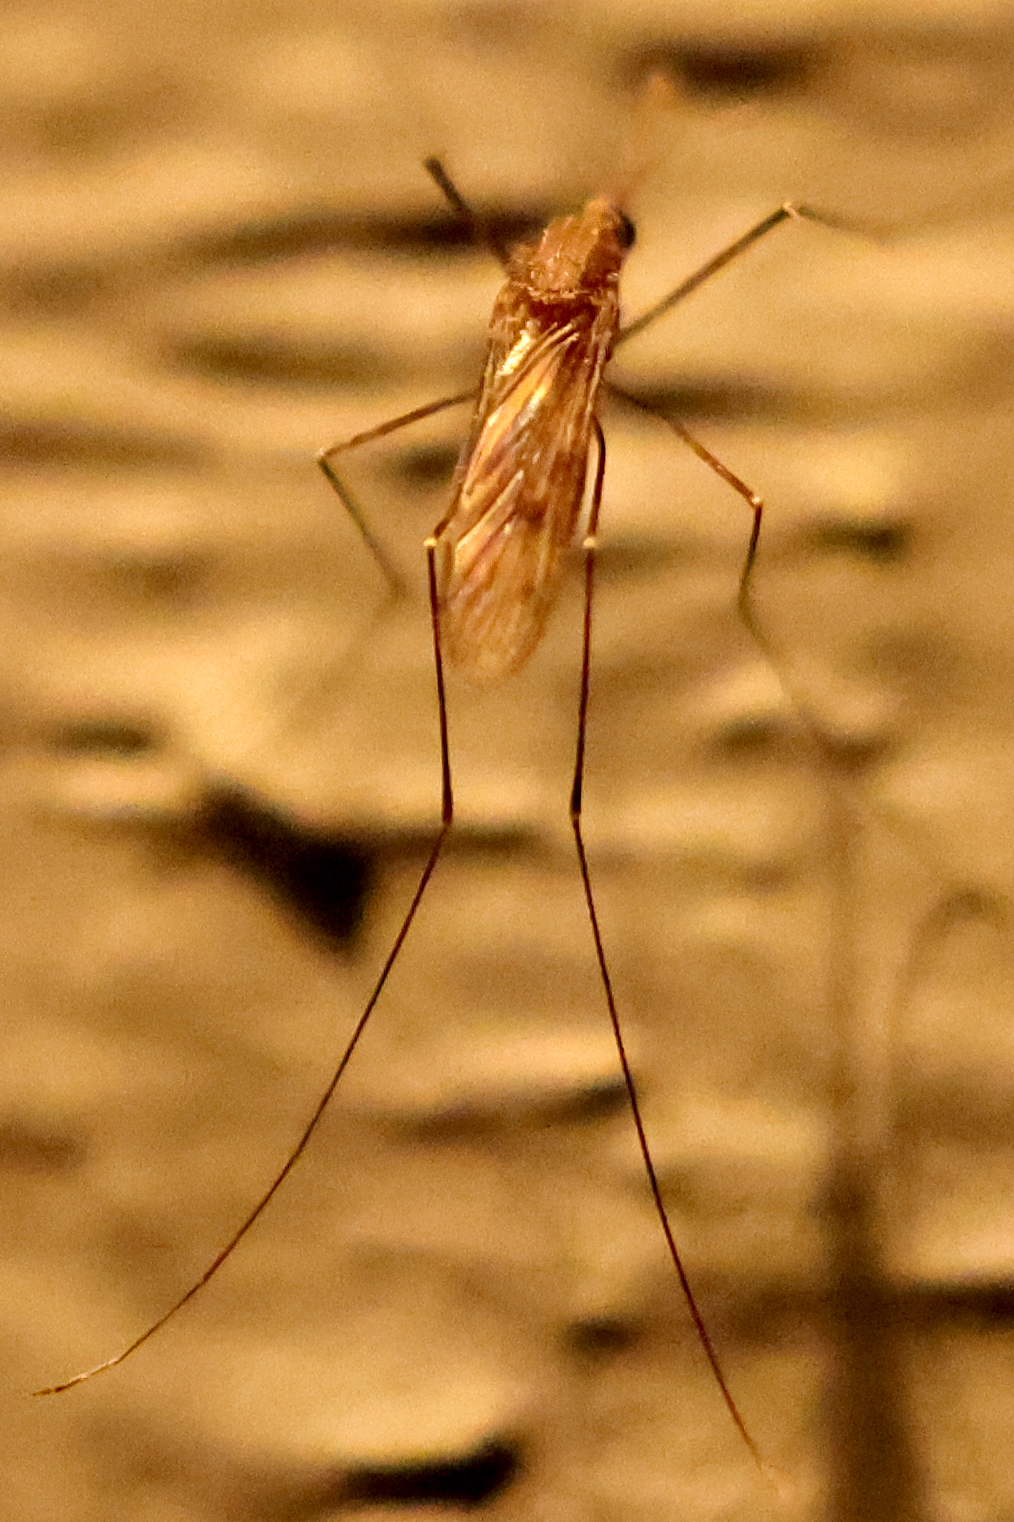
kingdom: Animalia
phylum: Arthropoda
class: Insecta
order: Diptera
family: Culicidae
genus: Anopheles
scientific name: Anopheles quadrimaculatus
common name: Common malaria mosquito
